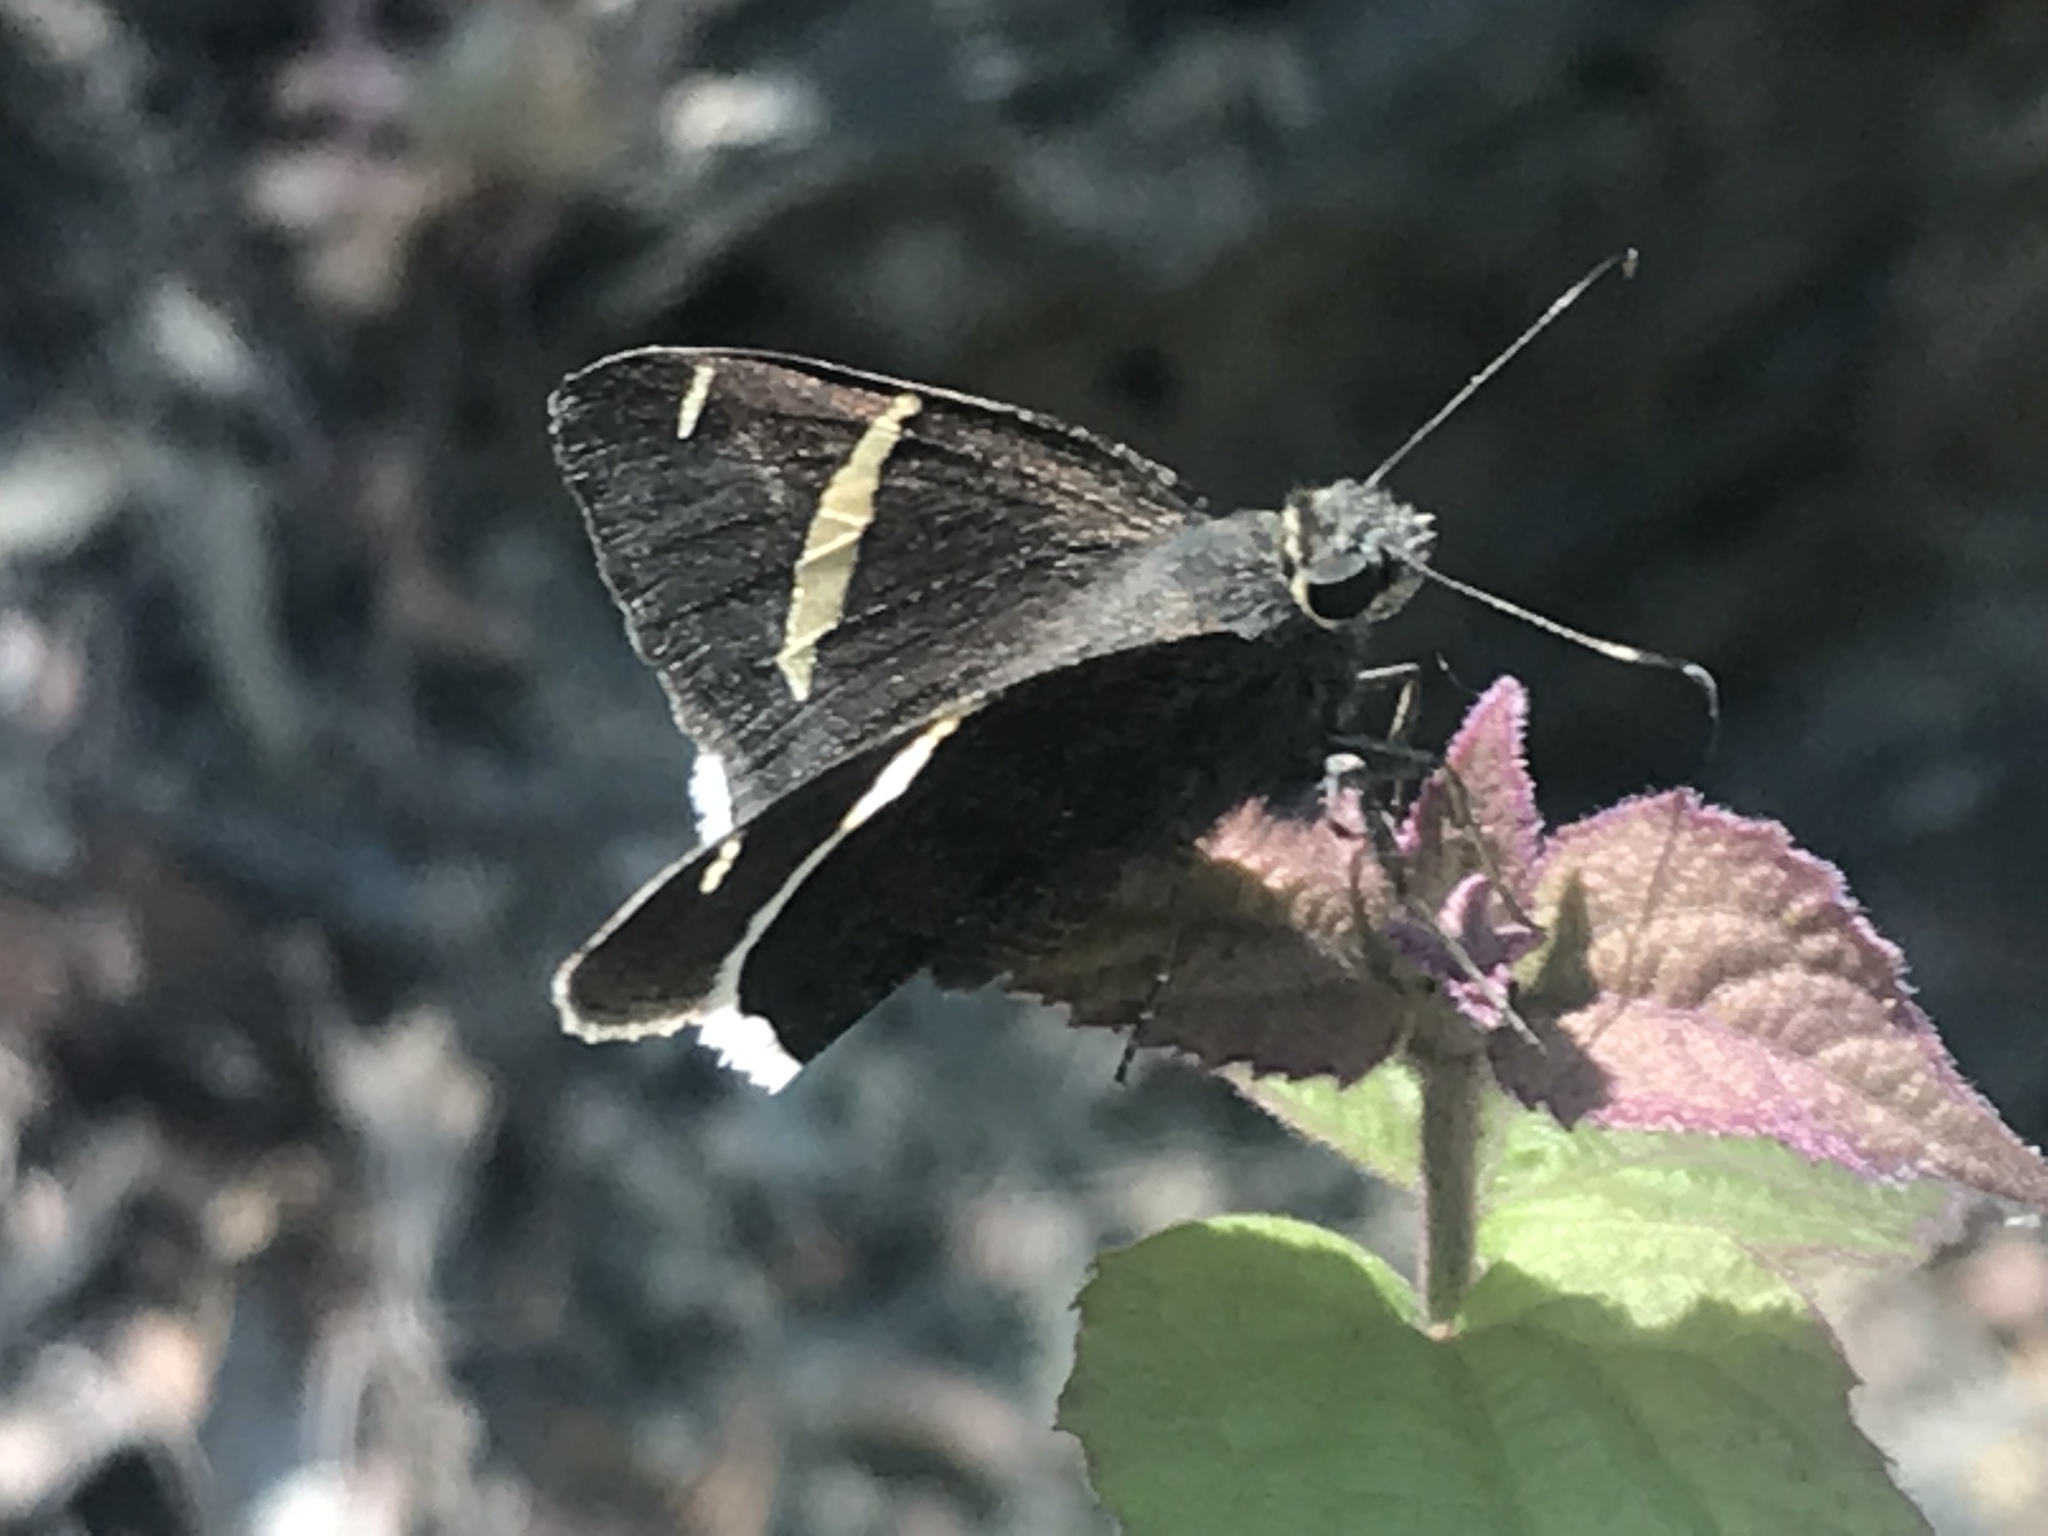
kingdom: Animalia
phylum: Arthropoda
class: Insecta
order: Lepidoptera
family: Hesperiidae
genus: Urbanus
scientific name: Urbanus teleus
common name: Teleus longtail
